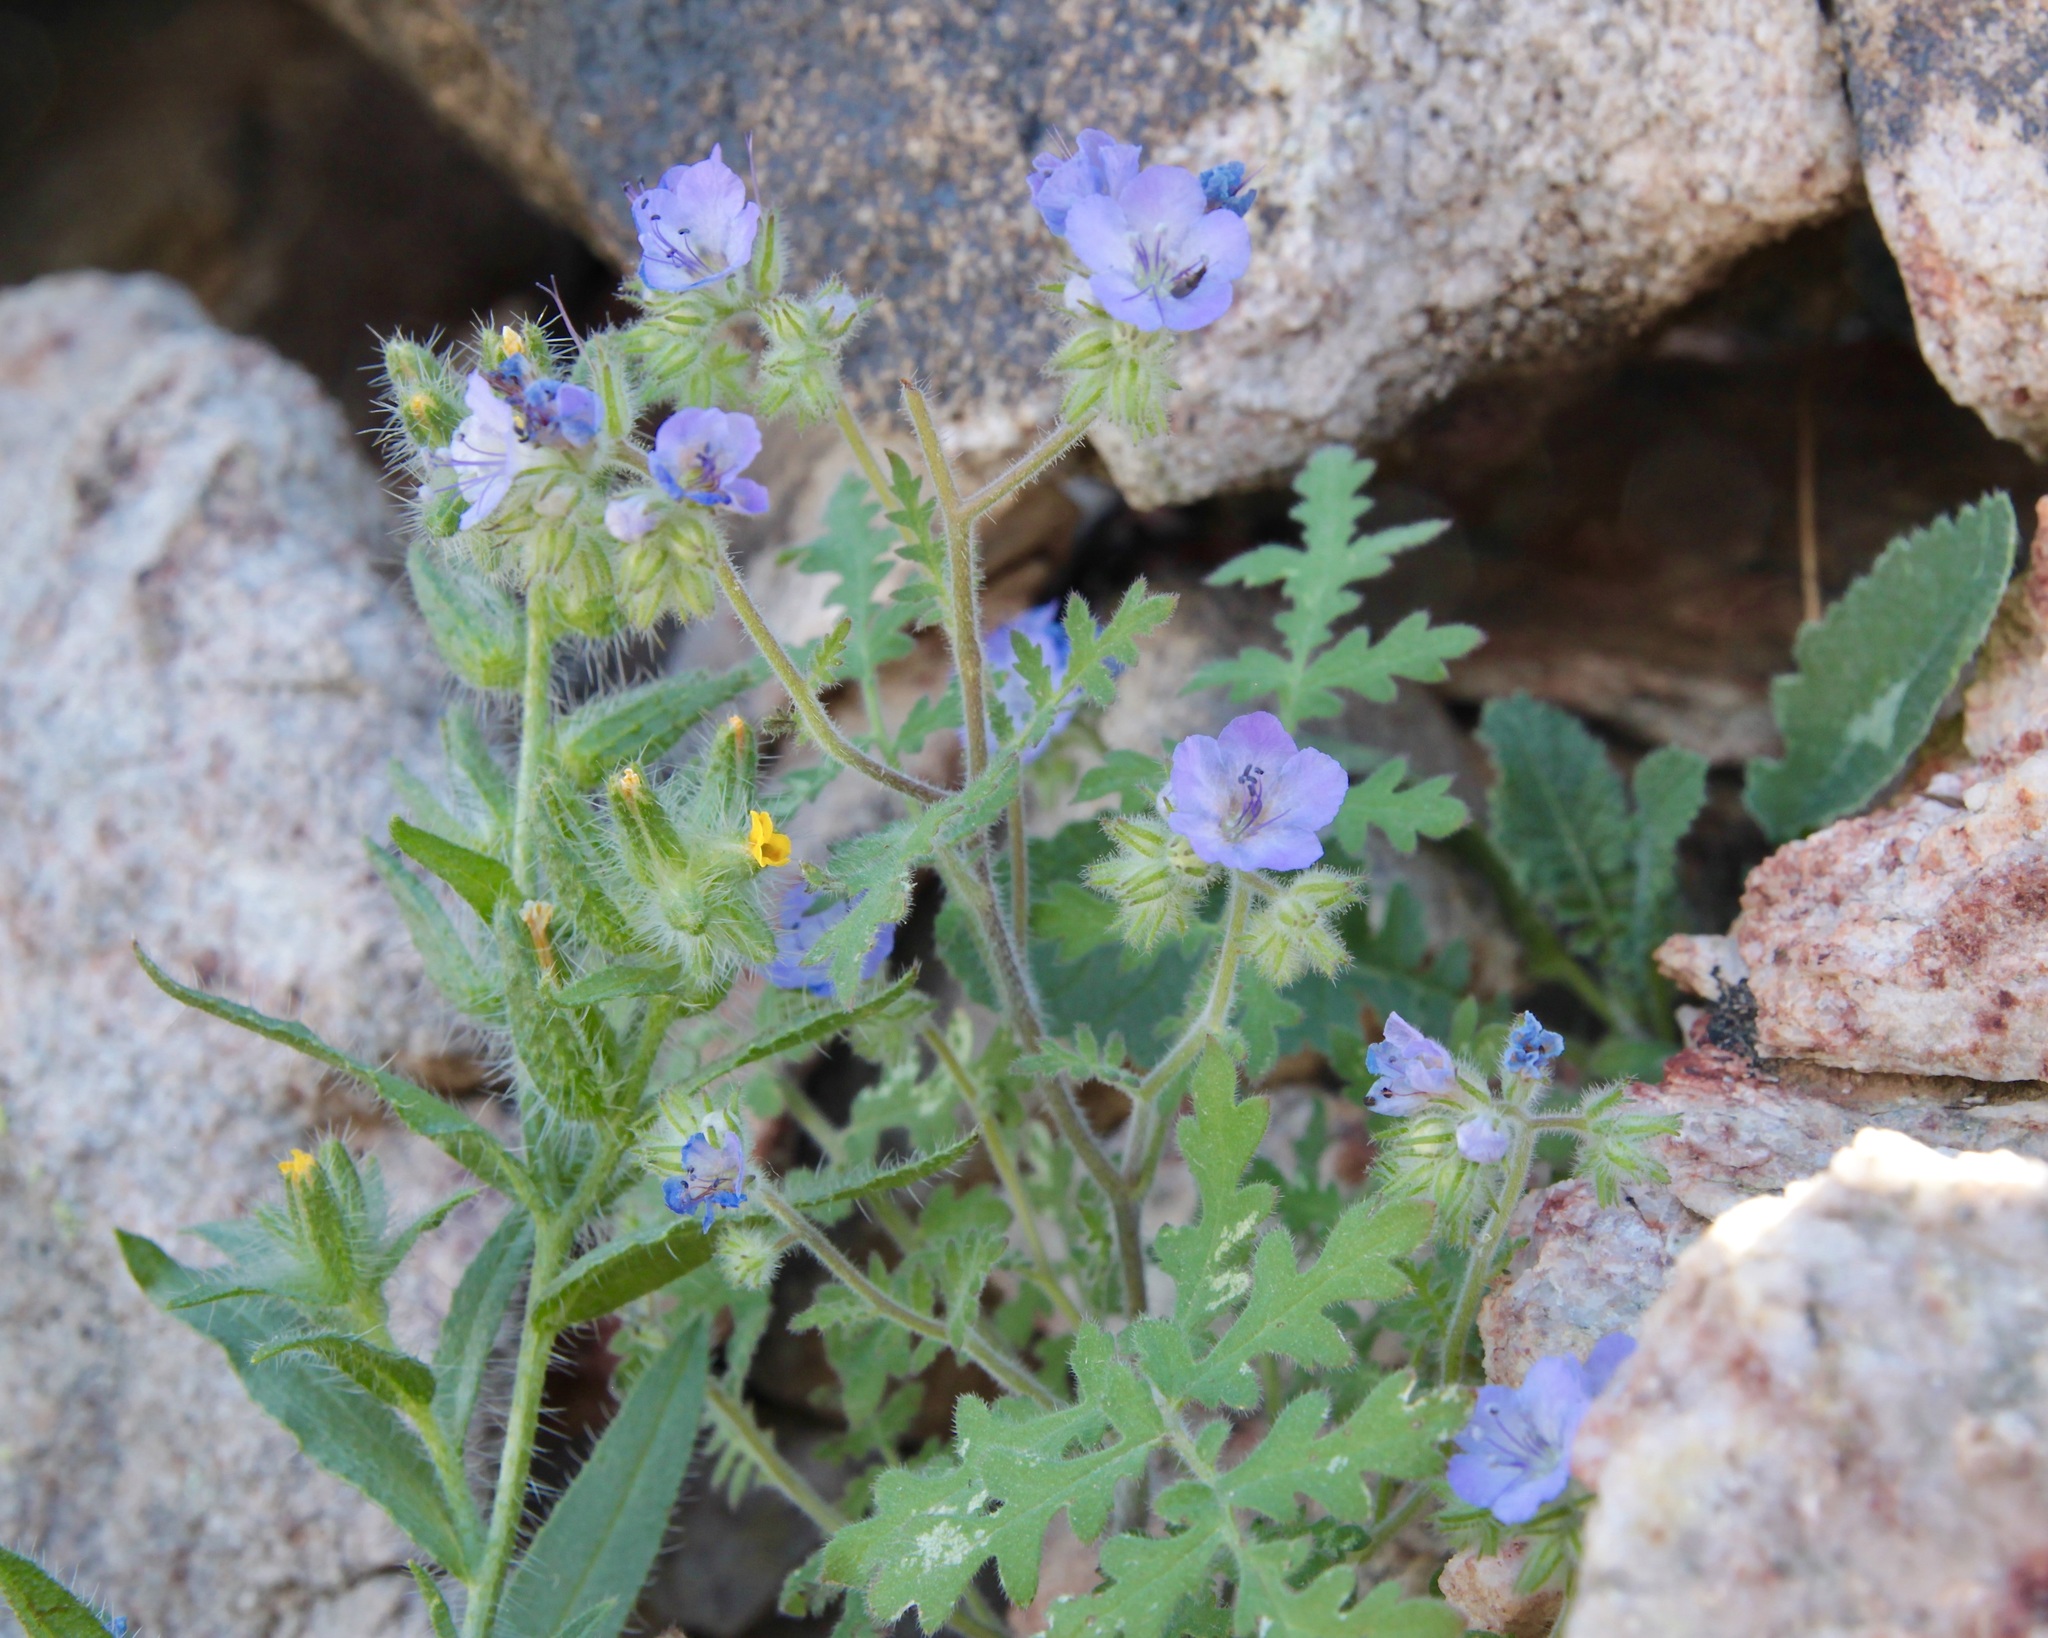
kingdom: Plantae
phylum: Tracheophyta
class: Magnoliopsida
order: Boraginales
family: Hydrophyllaceae
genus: Phacelia
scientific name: Phacelia distans
